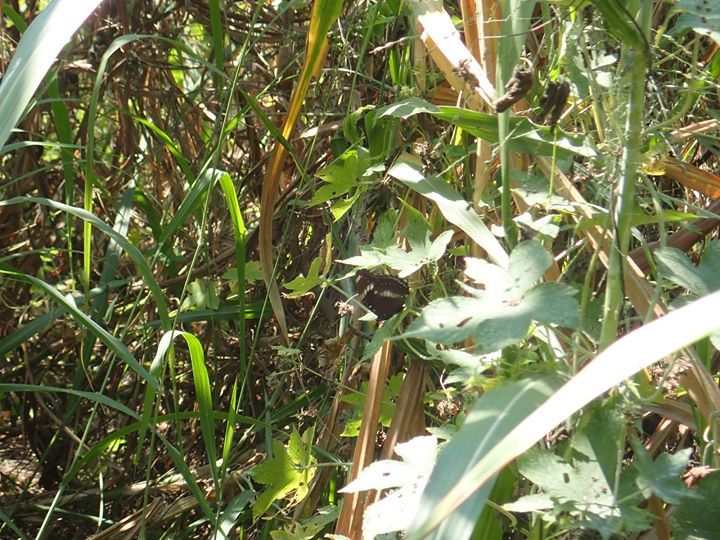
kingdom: Animalia
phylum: Arthropoda
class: Insecta
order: Lepidoptera
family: Nymphalidae
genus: Hypolimnas
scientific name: Hypolimnas bolina
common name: Great eggfly
